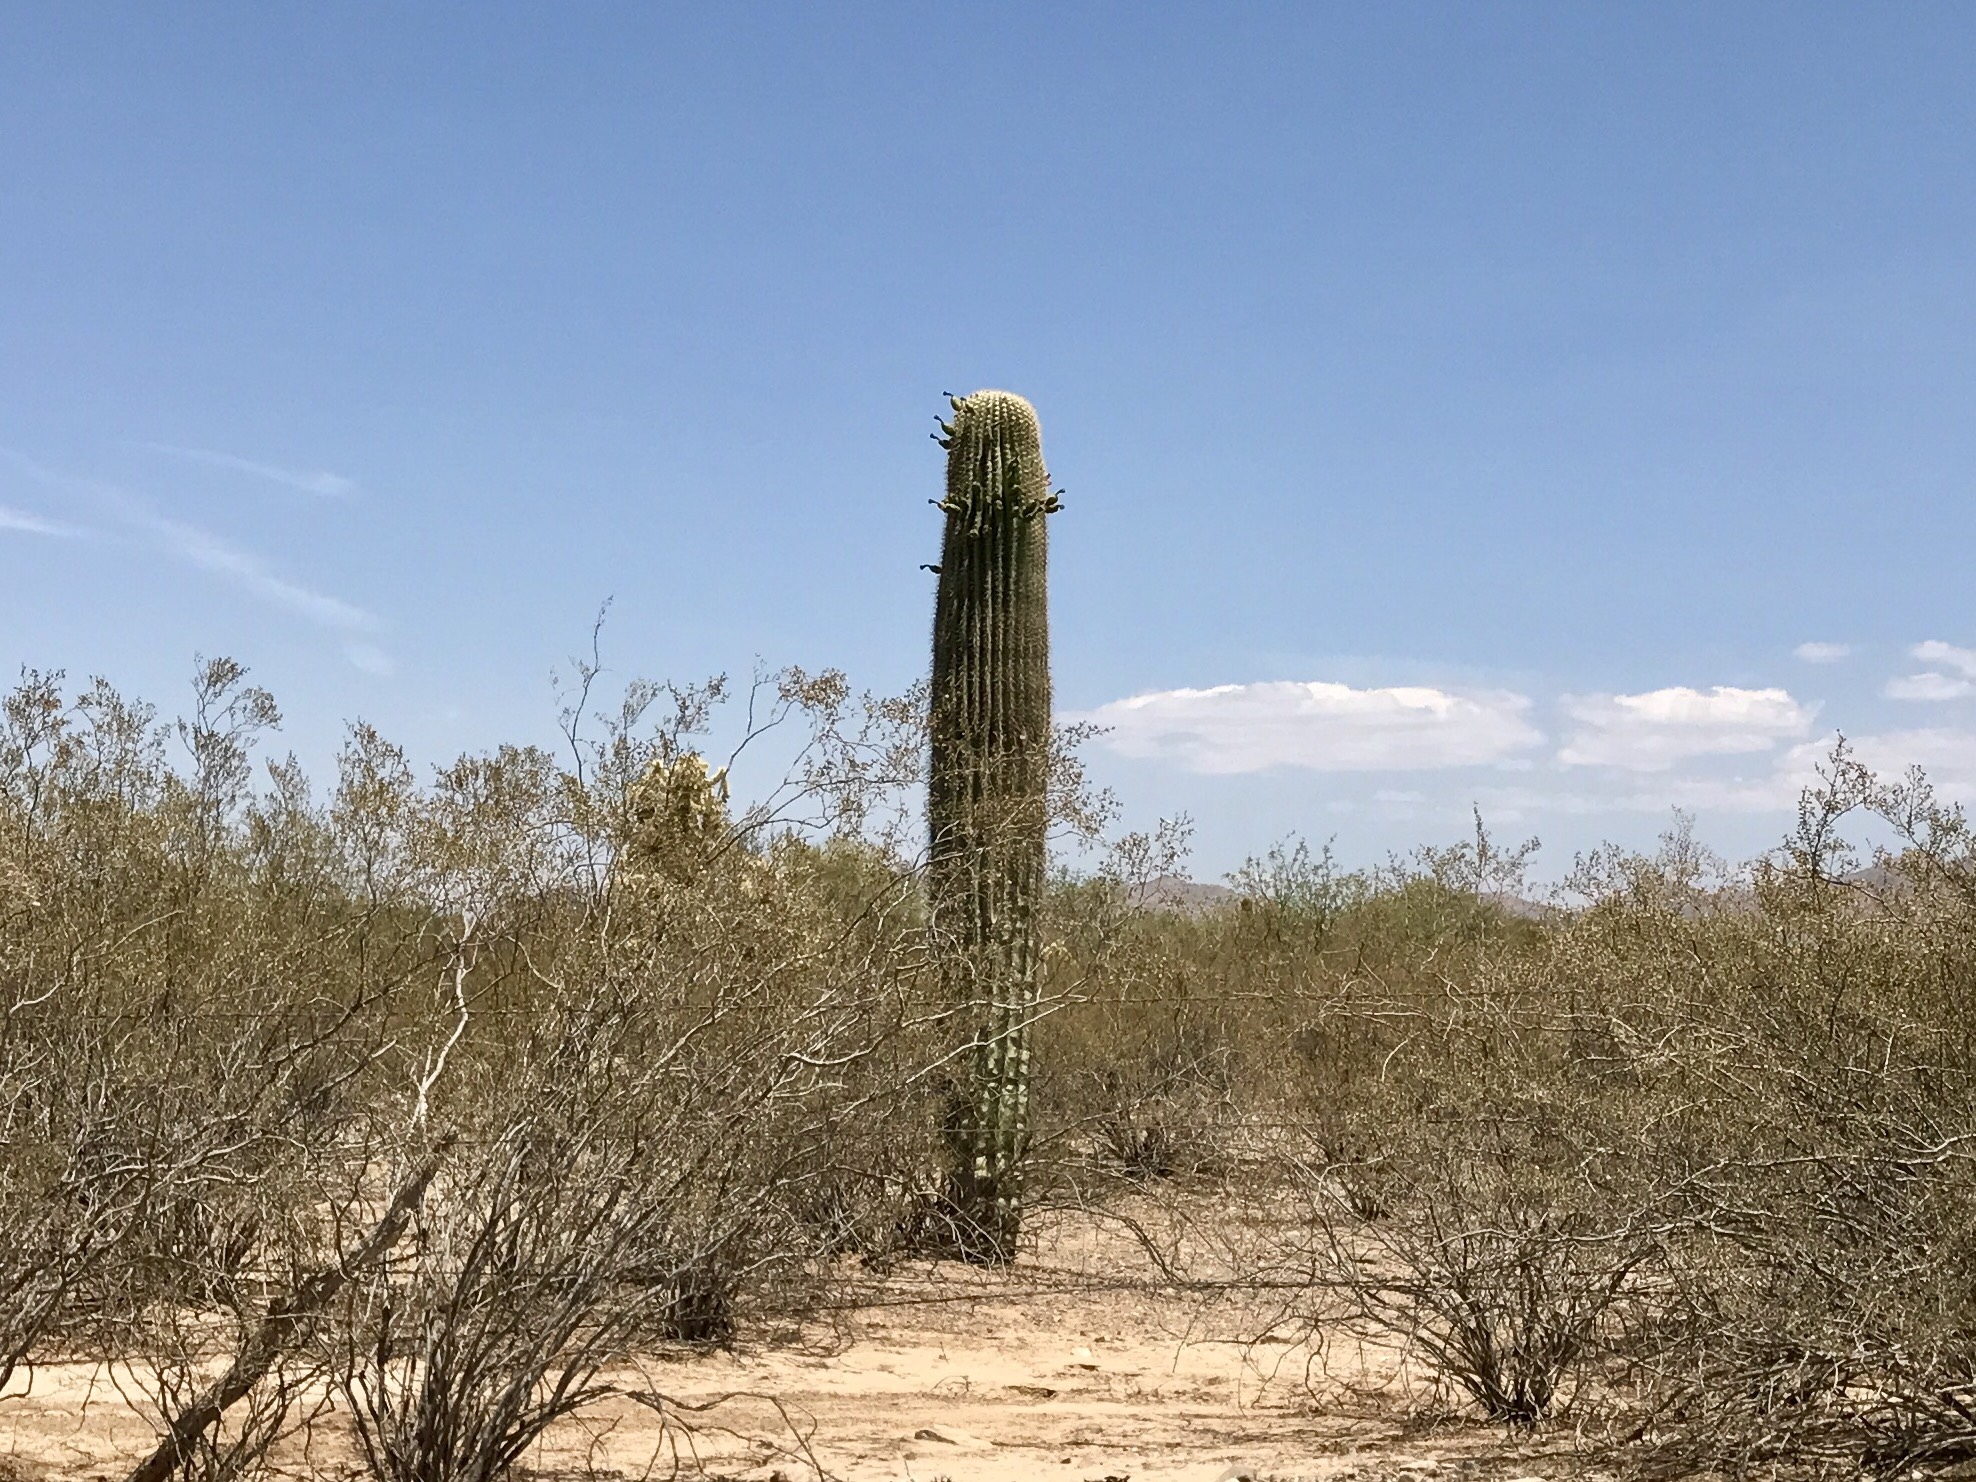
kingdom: Plantae
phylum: Tracheophyta
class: Magnoliopsida
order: Caryophyllales
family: Cactaceae
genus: Carnegiea
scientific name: Carnegiea gigantea
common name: Saguaro
